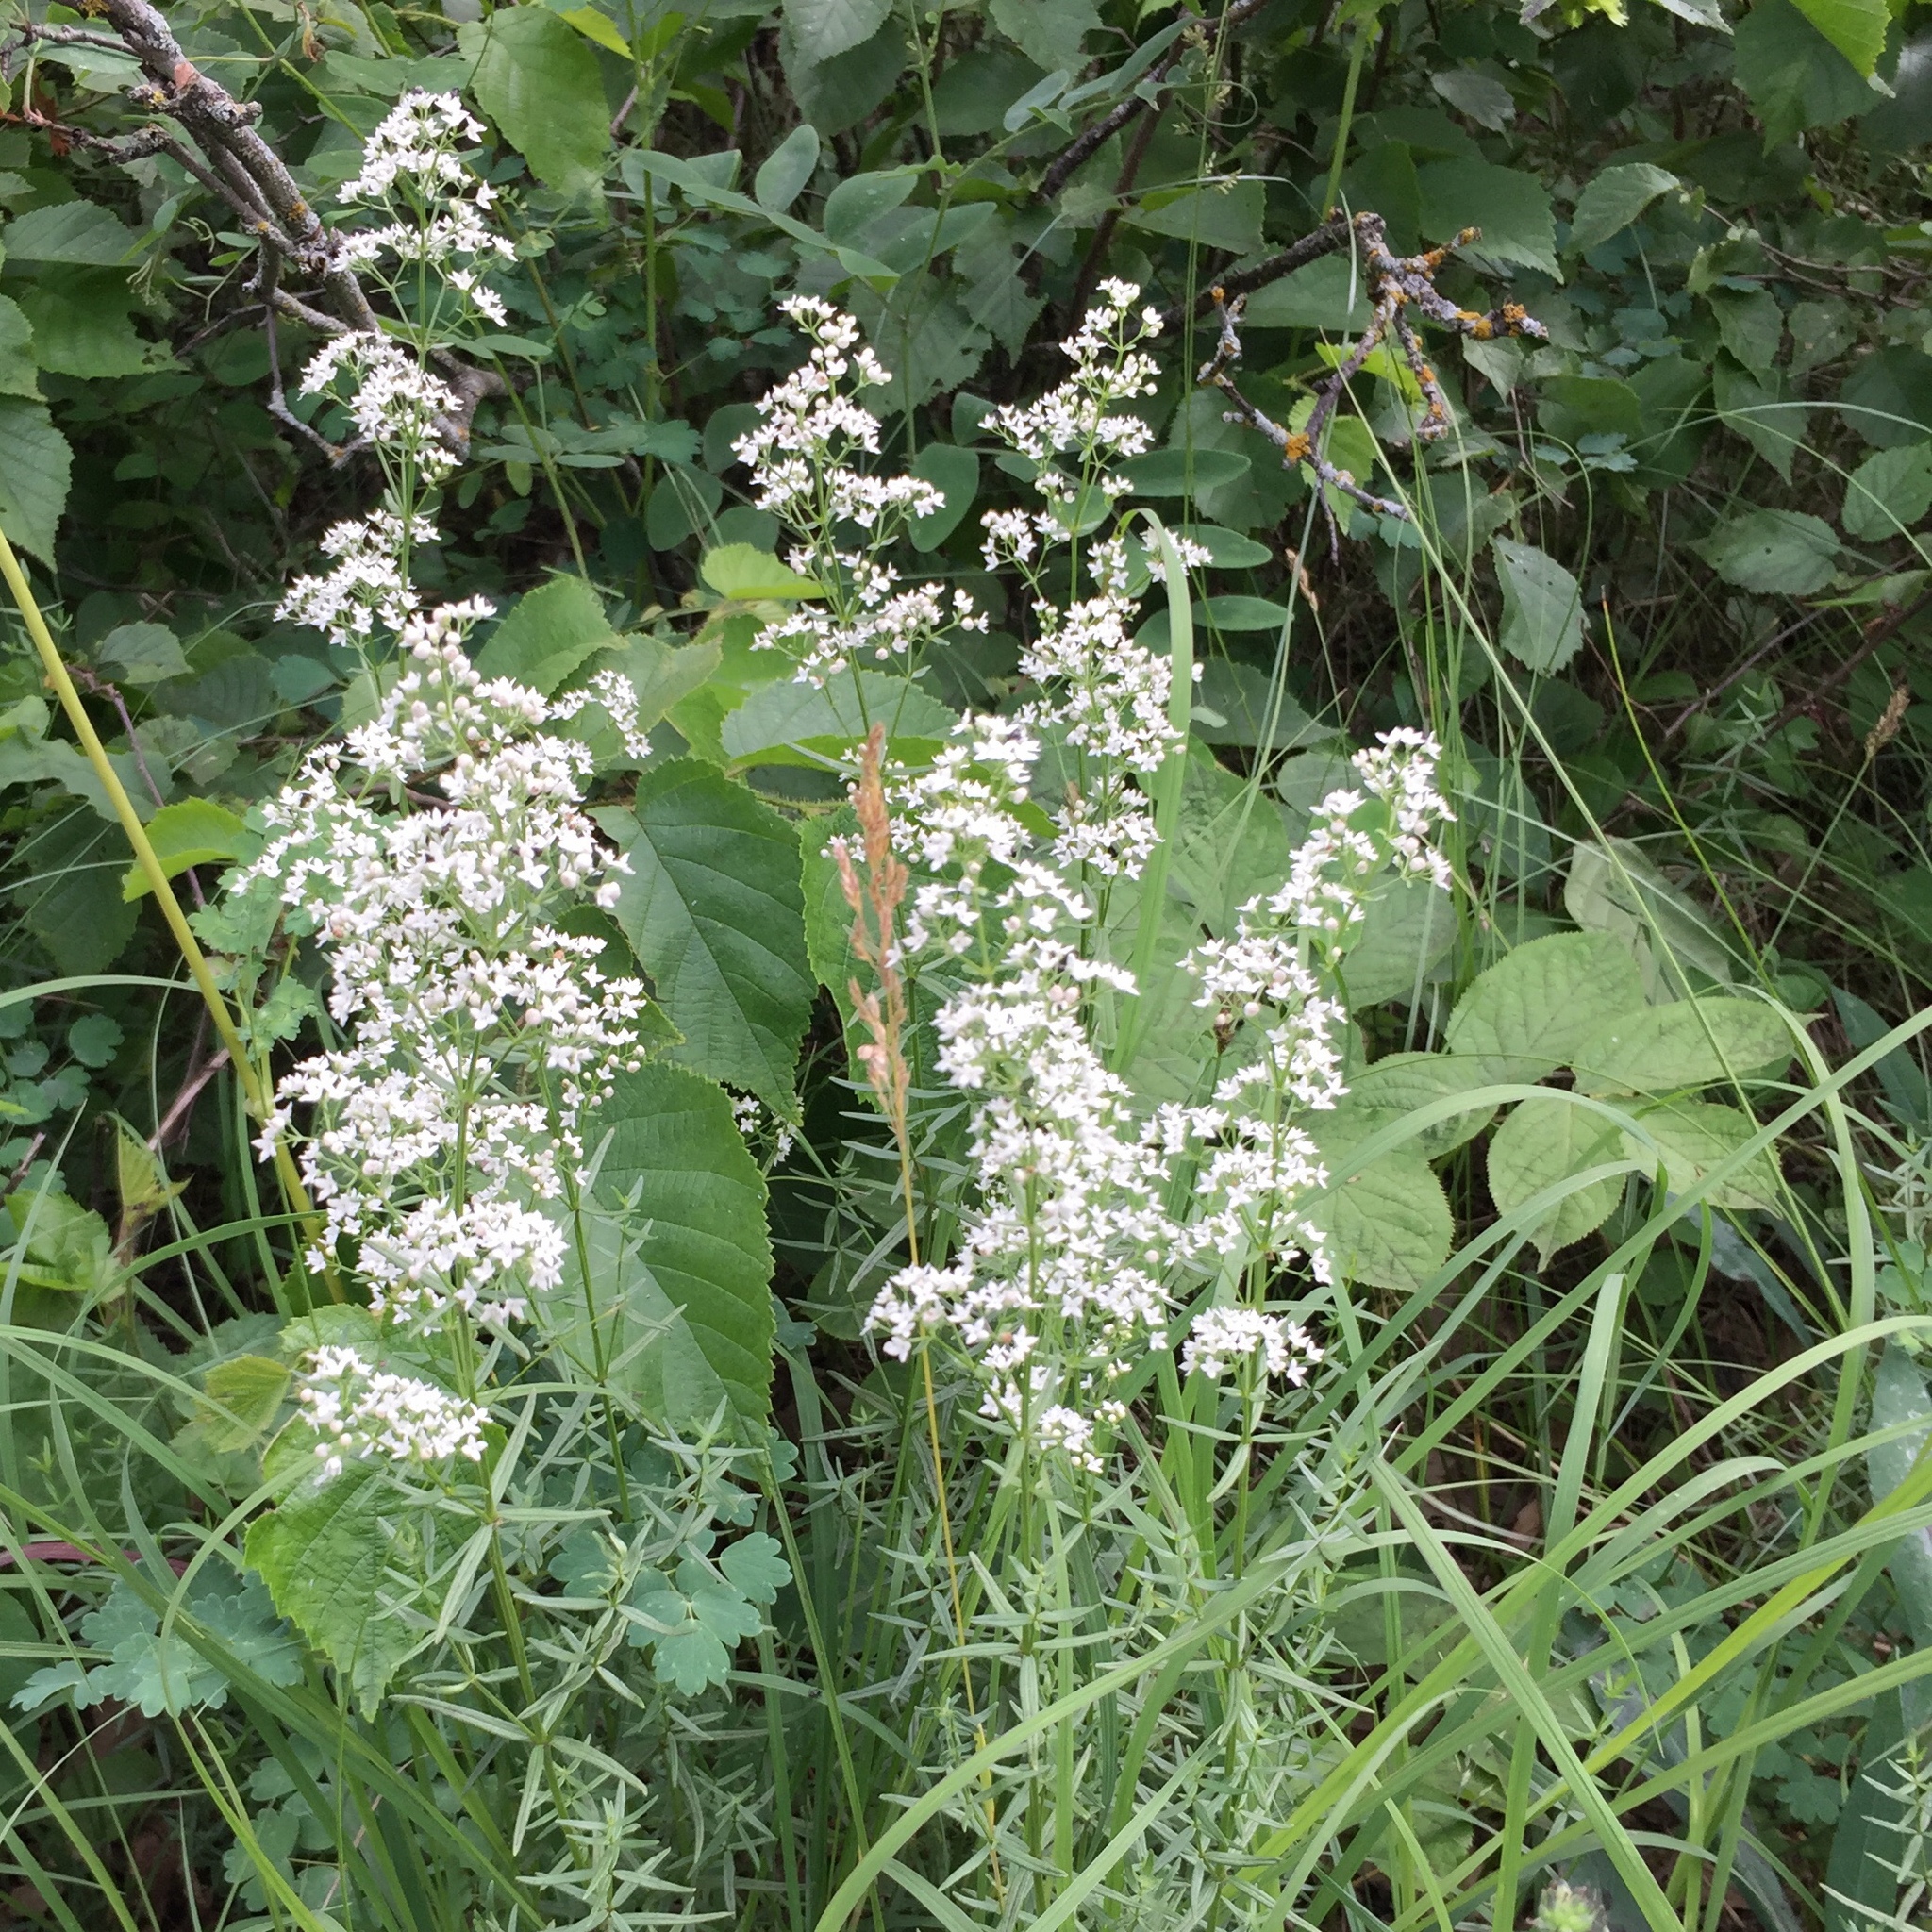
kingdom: Plantae
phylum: Tracheophyta
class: Magnoliopsida
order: Gentianales
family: Rubiaceae
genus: Galium
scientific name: Galium boreale
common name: Northern bedstraw
